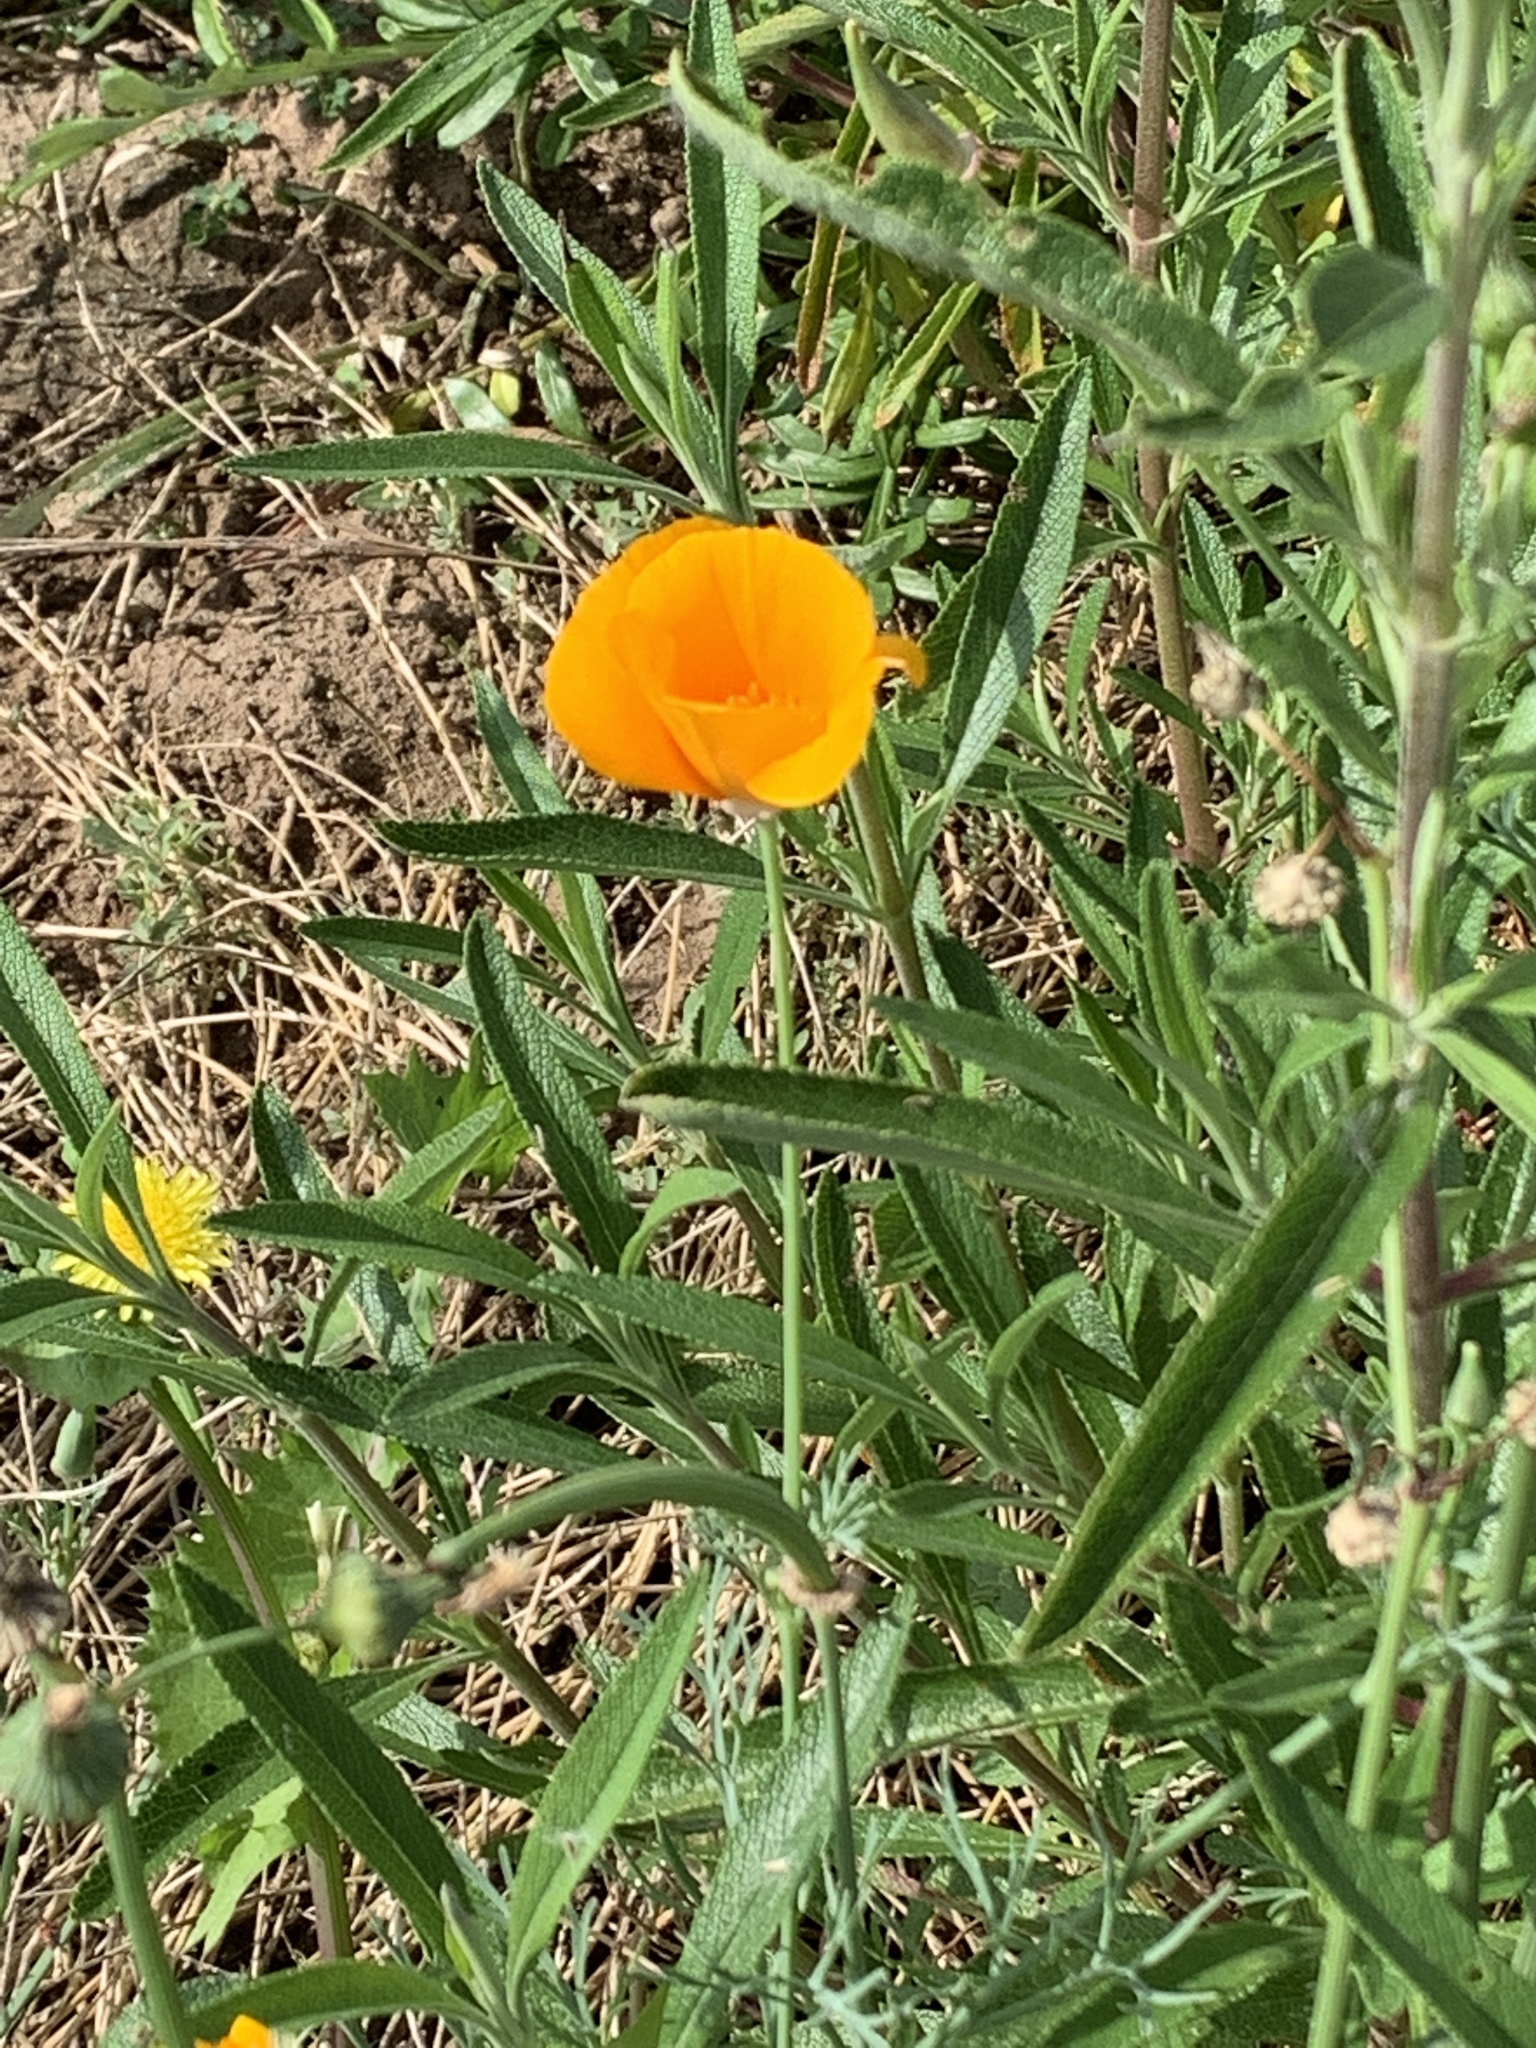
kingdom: Plantae
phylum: Tracheophyta
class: Magnoliopsida
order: Ranunculales
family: Papaveraceae
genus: Eschscholzia
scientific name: Eschscholzia californica
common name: California poppy
